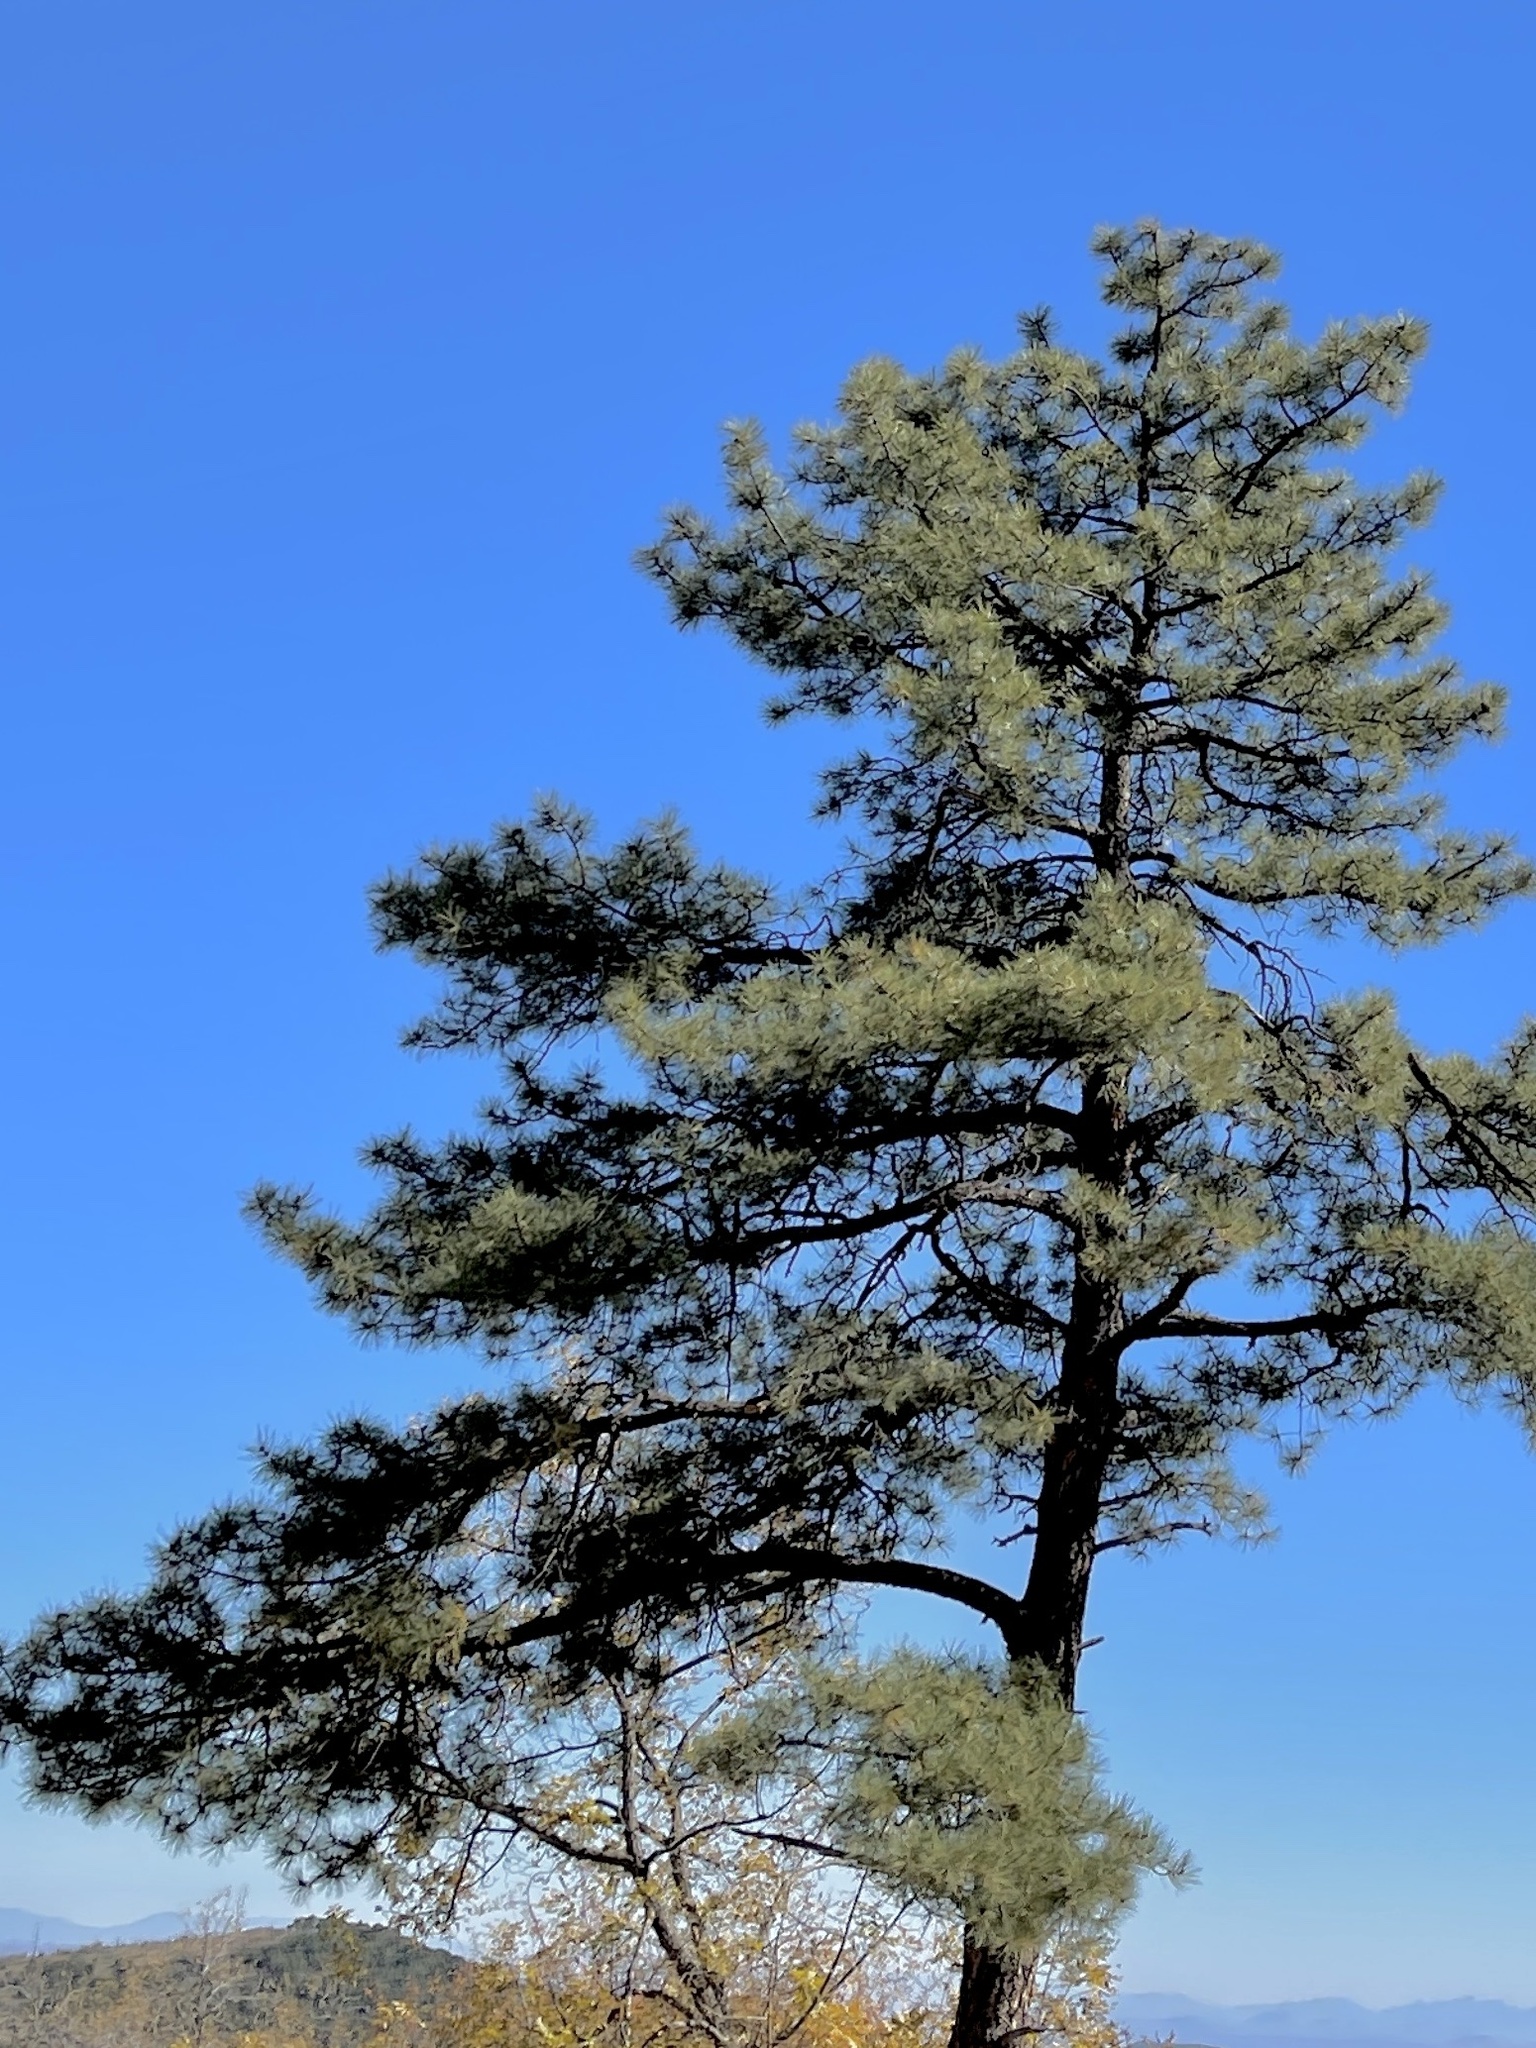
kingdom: Plantae
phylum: Tracheophyta
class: Pinopsida
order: Pinales
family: Pinaceae
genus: Pinus
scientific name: Pinus ponderosa
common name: Western yellow-pine
